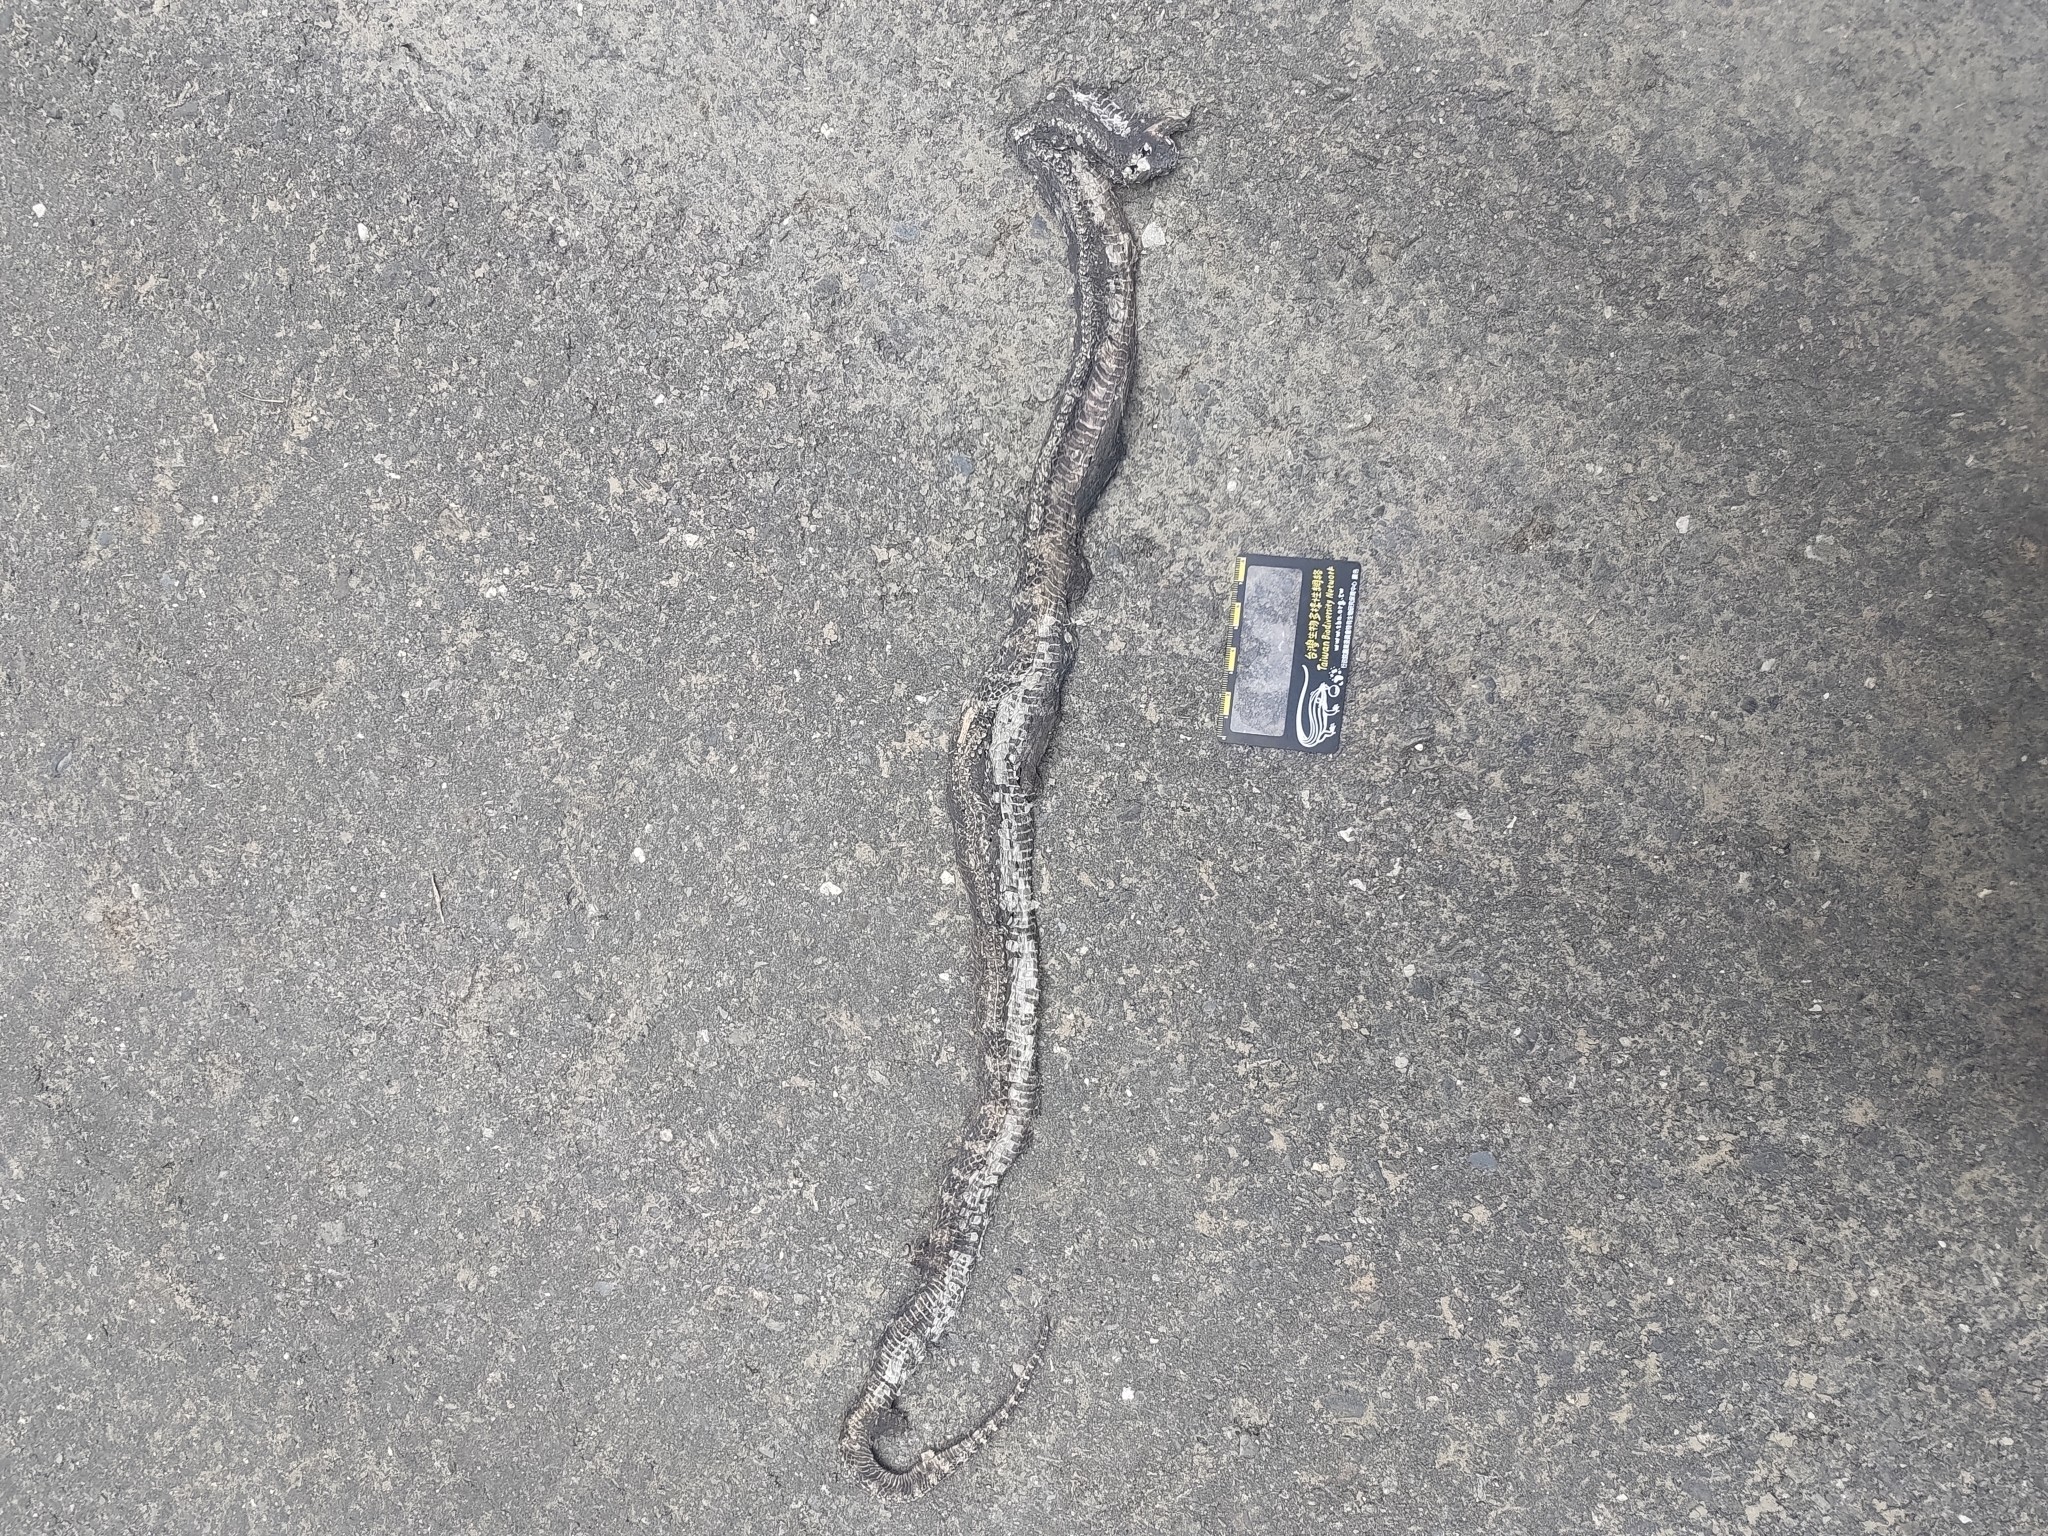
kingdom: Animalia
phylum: Chordata
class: Squamata
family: Elapidae
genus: Bungarus
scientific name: Bungarus multicinctus
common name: Many-banded krait
